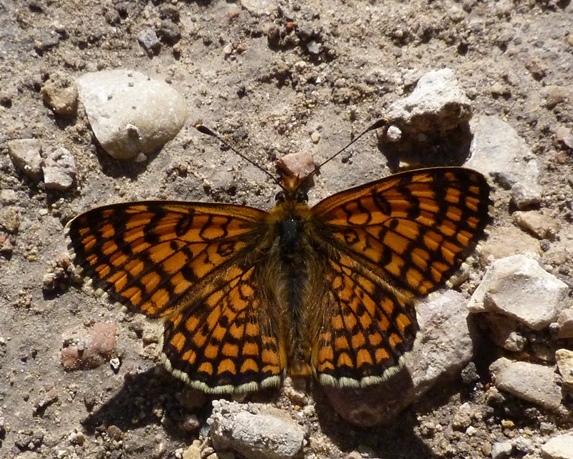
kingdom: Animalia
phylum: Arthropoda
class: Insecta
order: Lepidoptera
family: Nymphalidae
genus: Melitaea
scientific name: Melitaea deione
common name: Provençal fritillary
